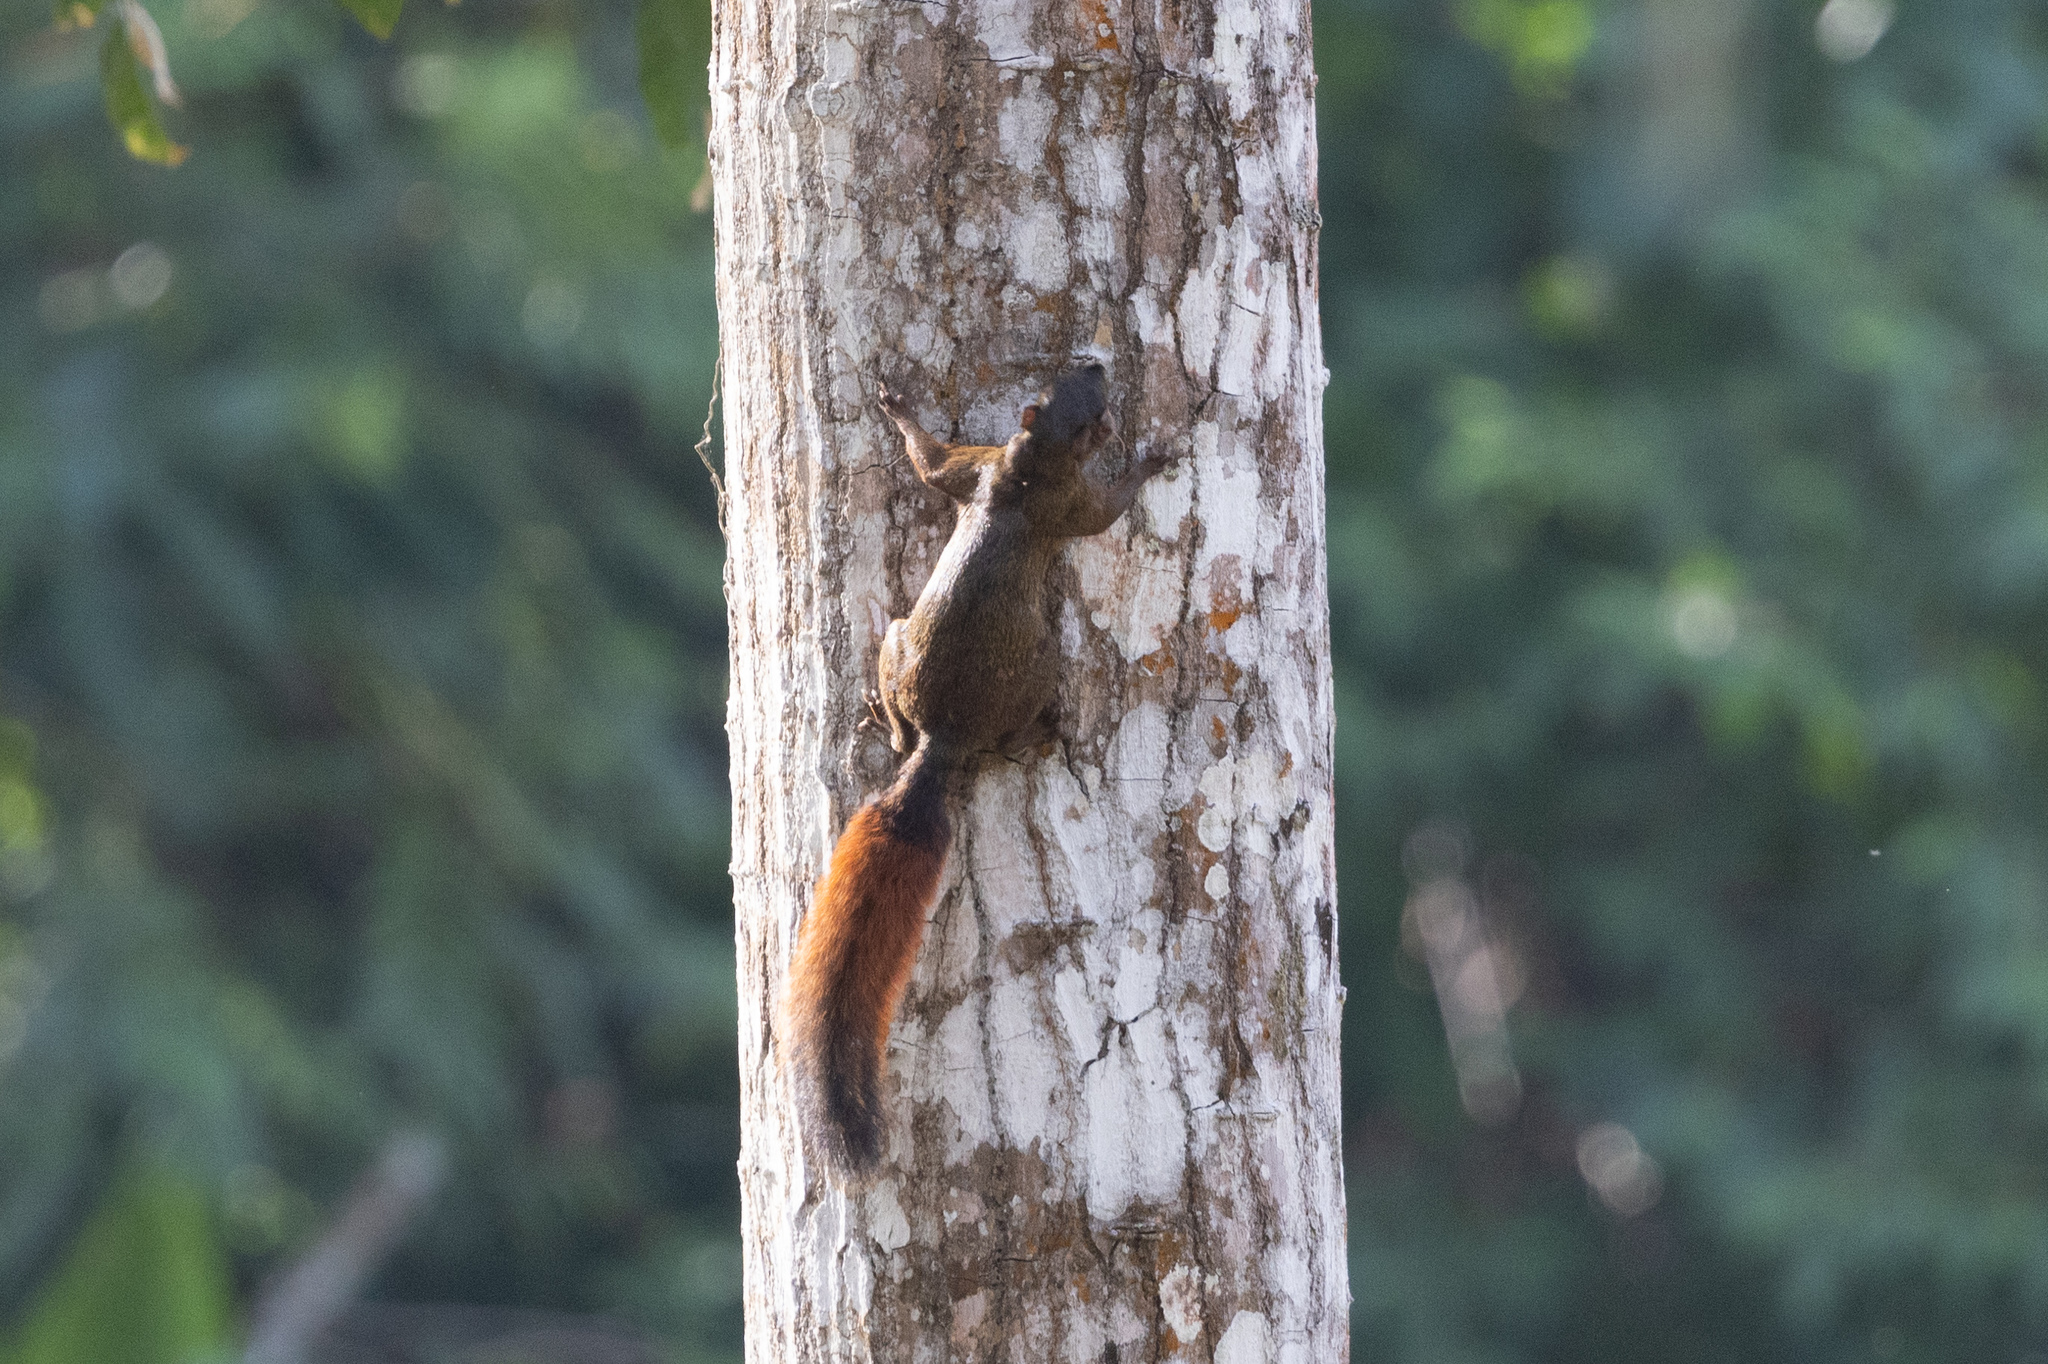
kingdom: Animalia
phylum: Chordata
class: Mammalia
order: Rodentia
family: Sciuridae
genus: Sciurus
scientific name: Sciurus granatensis
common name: Red-tailed squirrel
